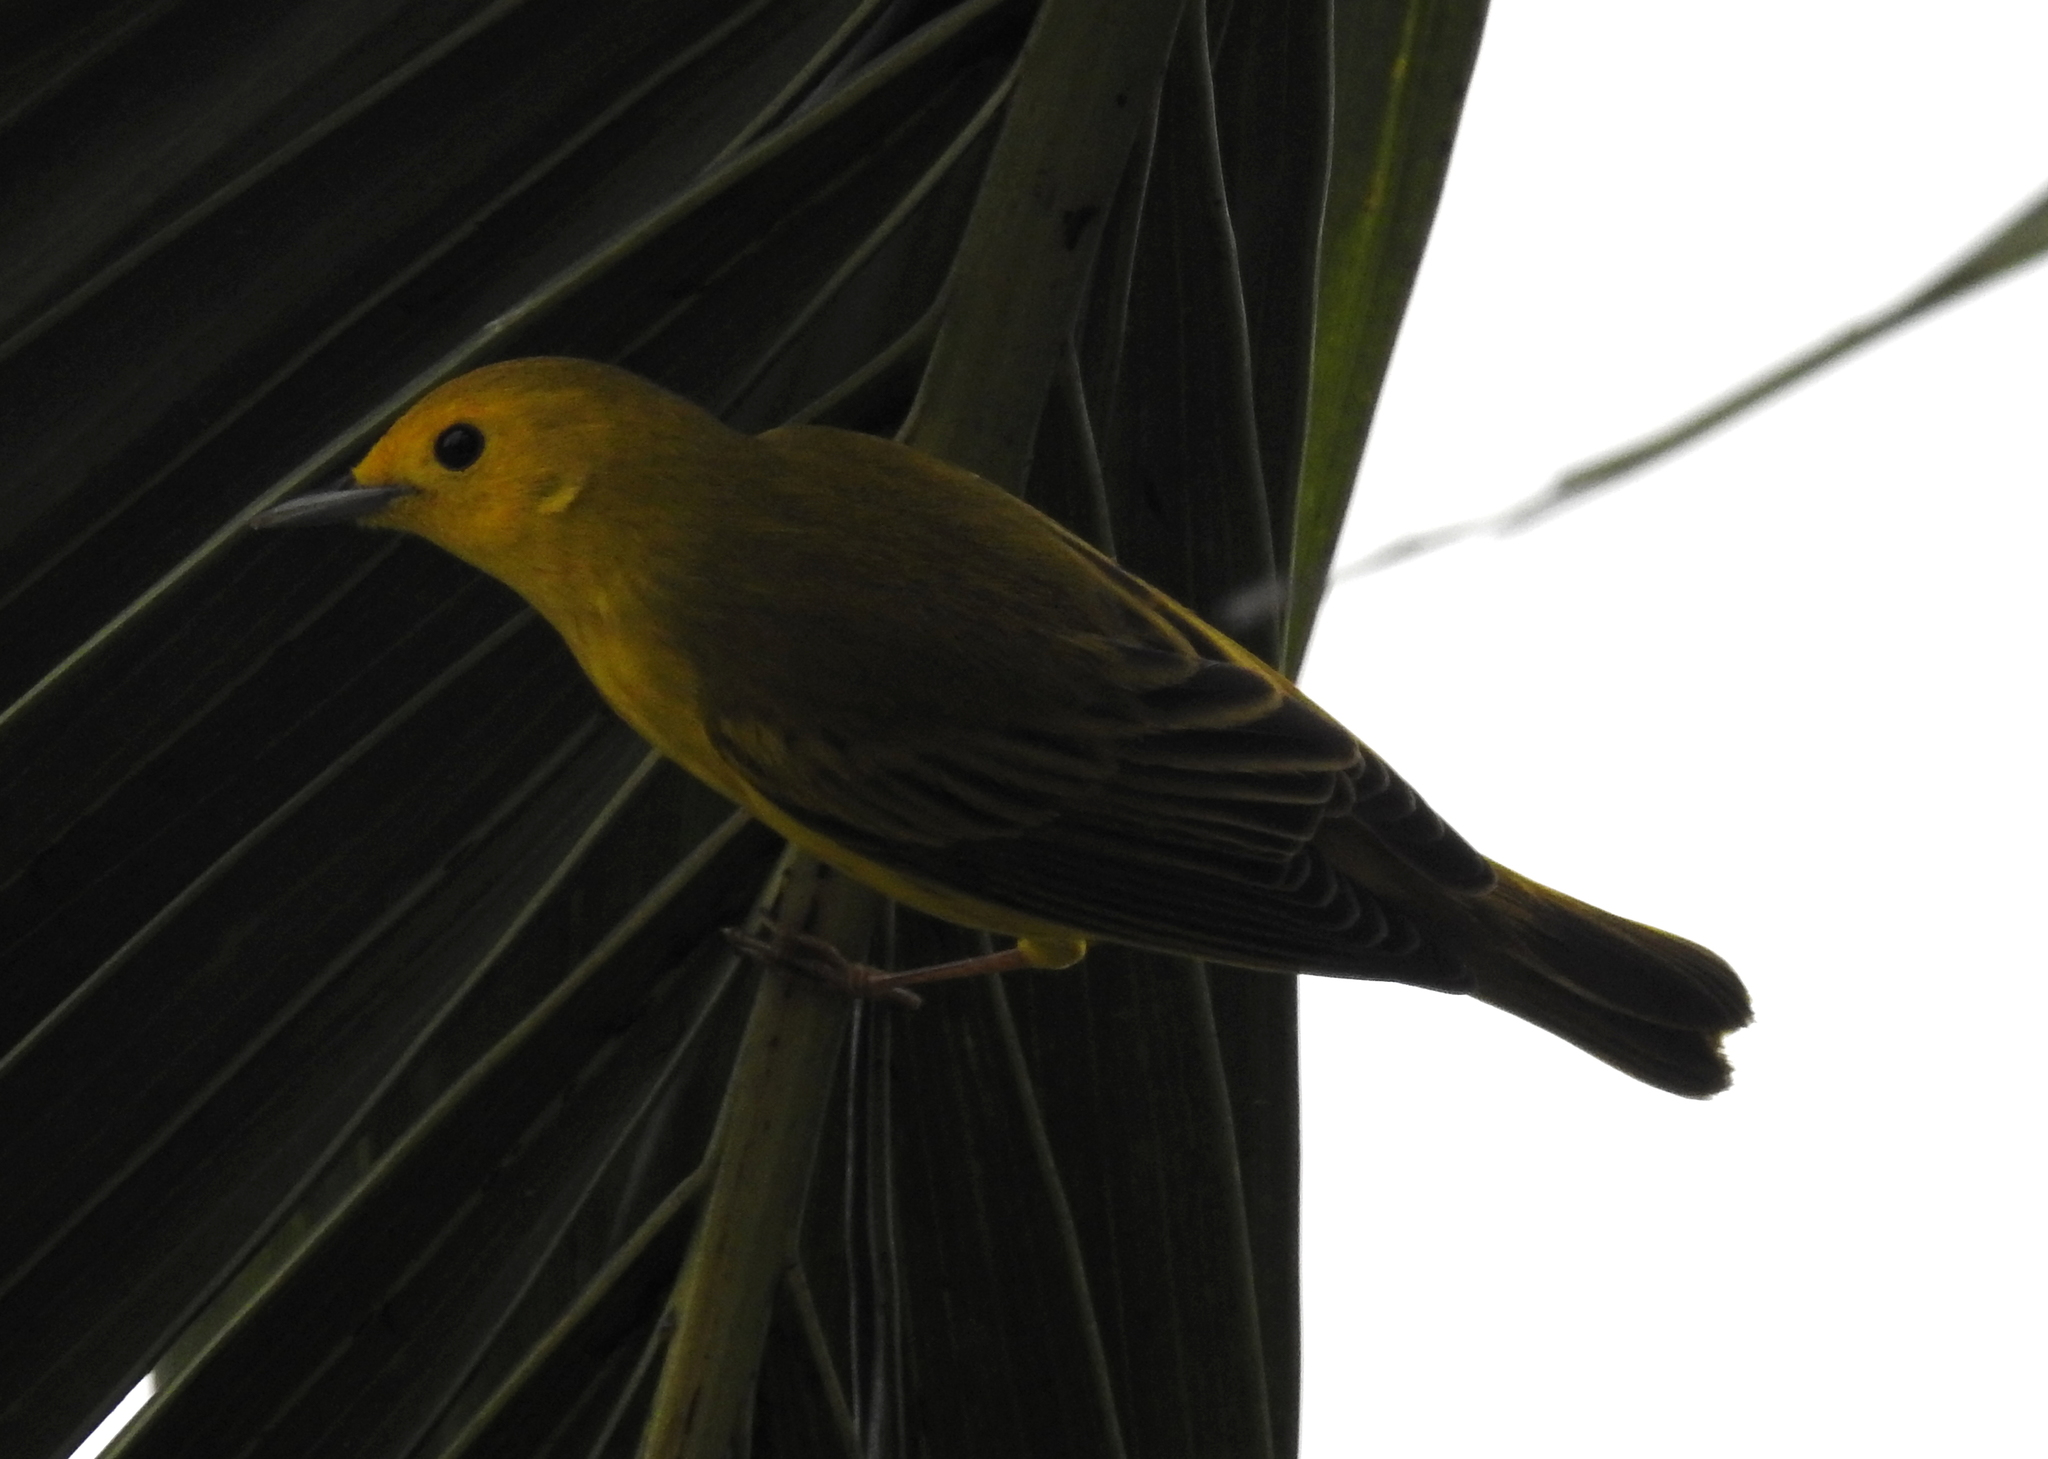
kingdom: Animalia
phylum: Chordata
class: Aves
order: Passeriformes
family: Parulidae
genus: Setophaga
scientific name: Setophaga petechia
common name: Yellow warbler
